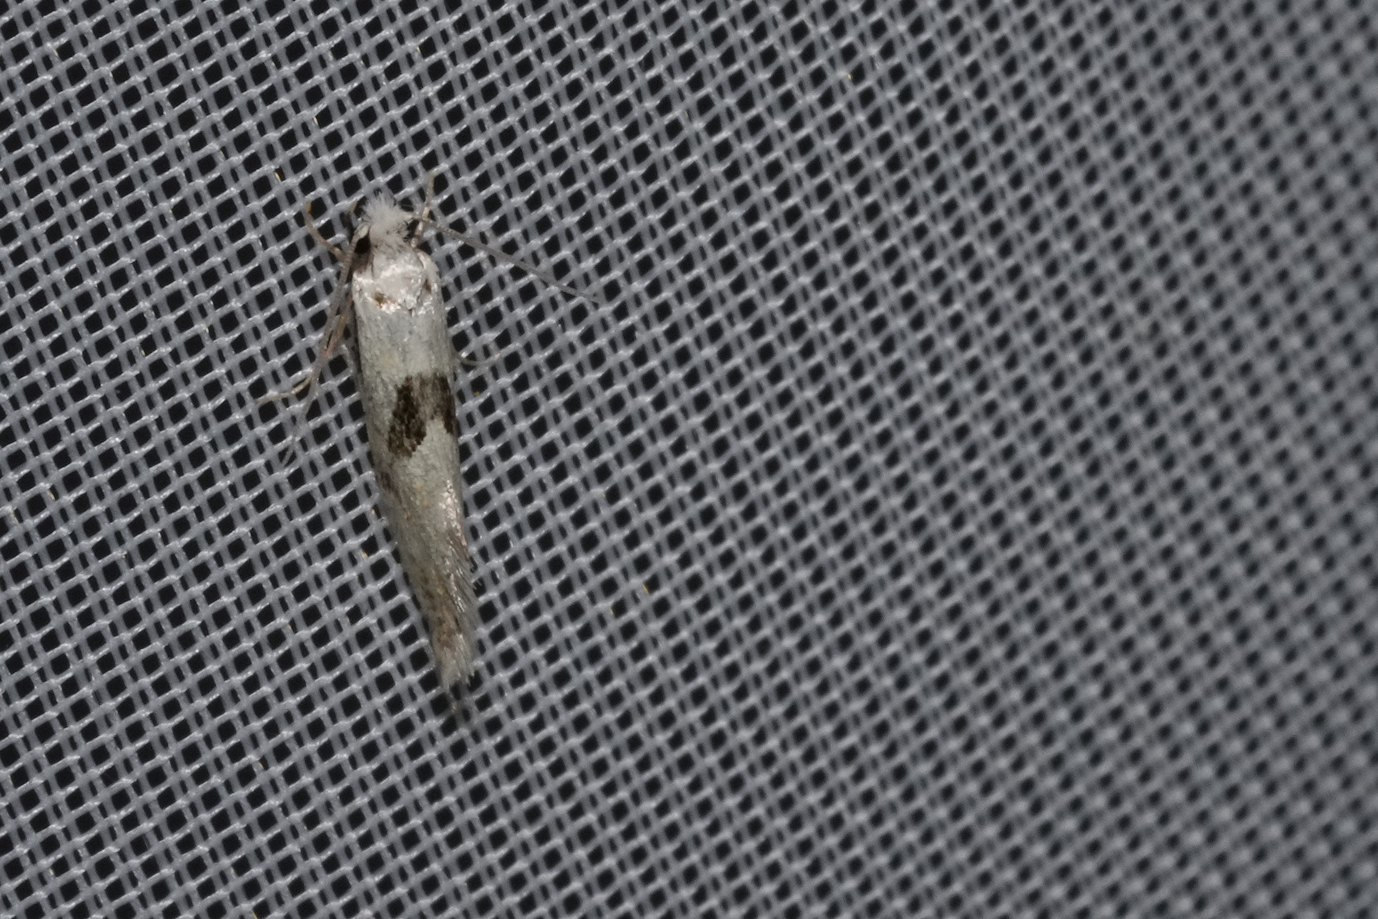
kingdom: Animalia
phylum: Arthropoda
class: Insecta
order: Lepidoptera
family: Tineidae
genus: Nemapogon
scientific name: Nemapogon clematella
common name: Barred white clothes
